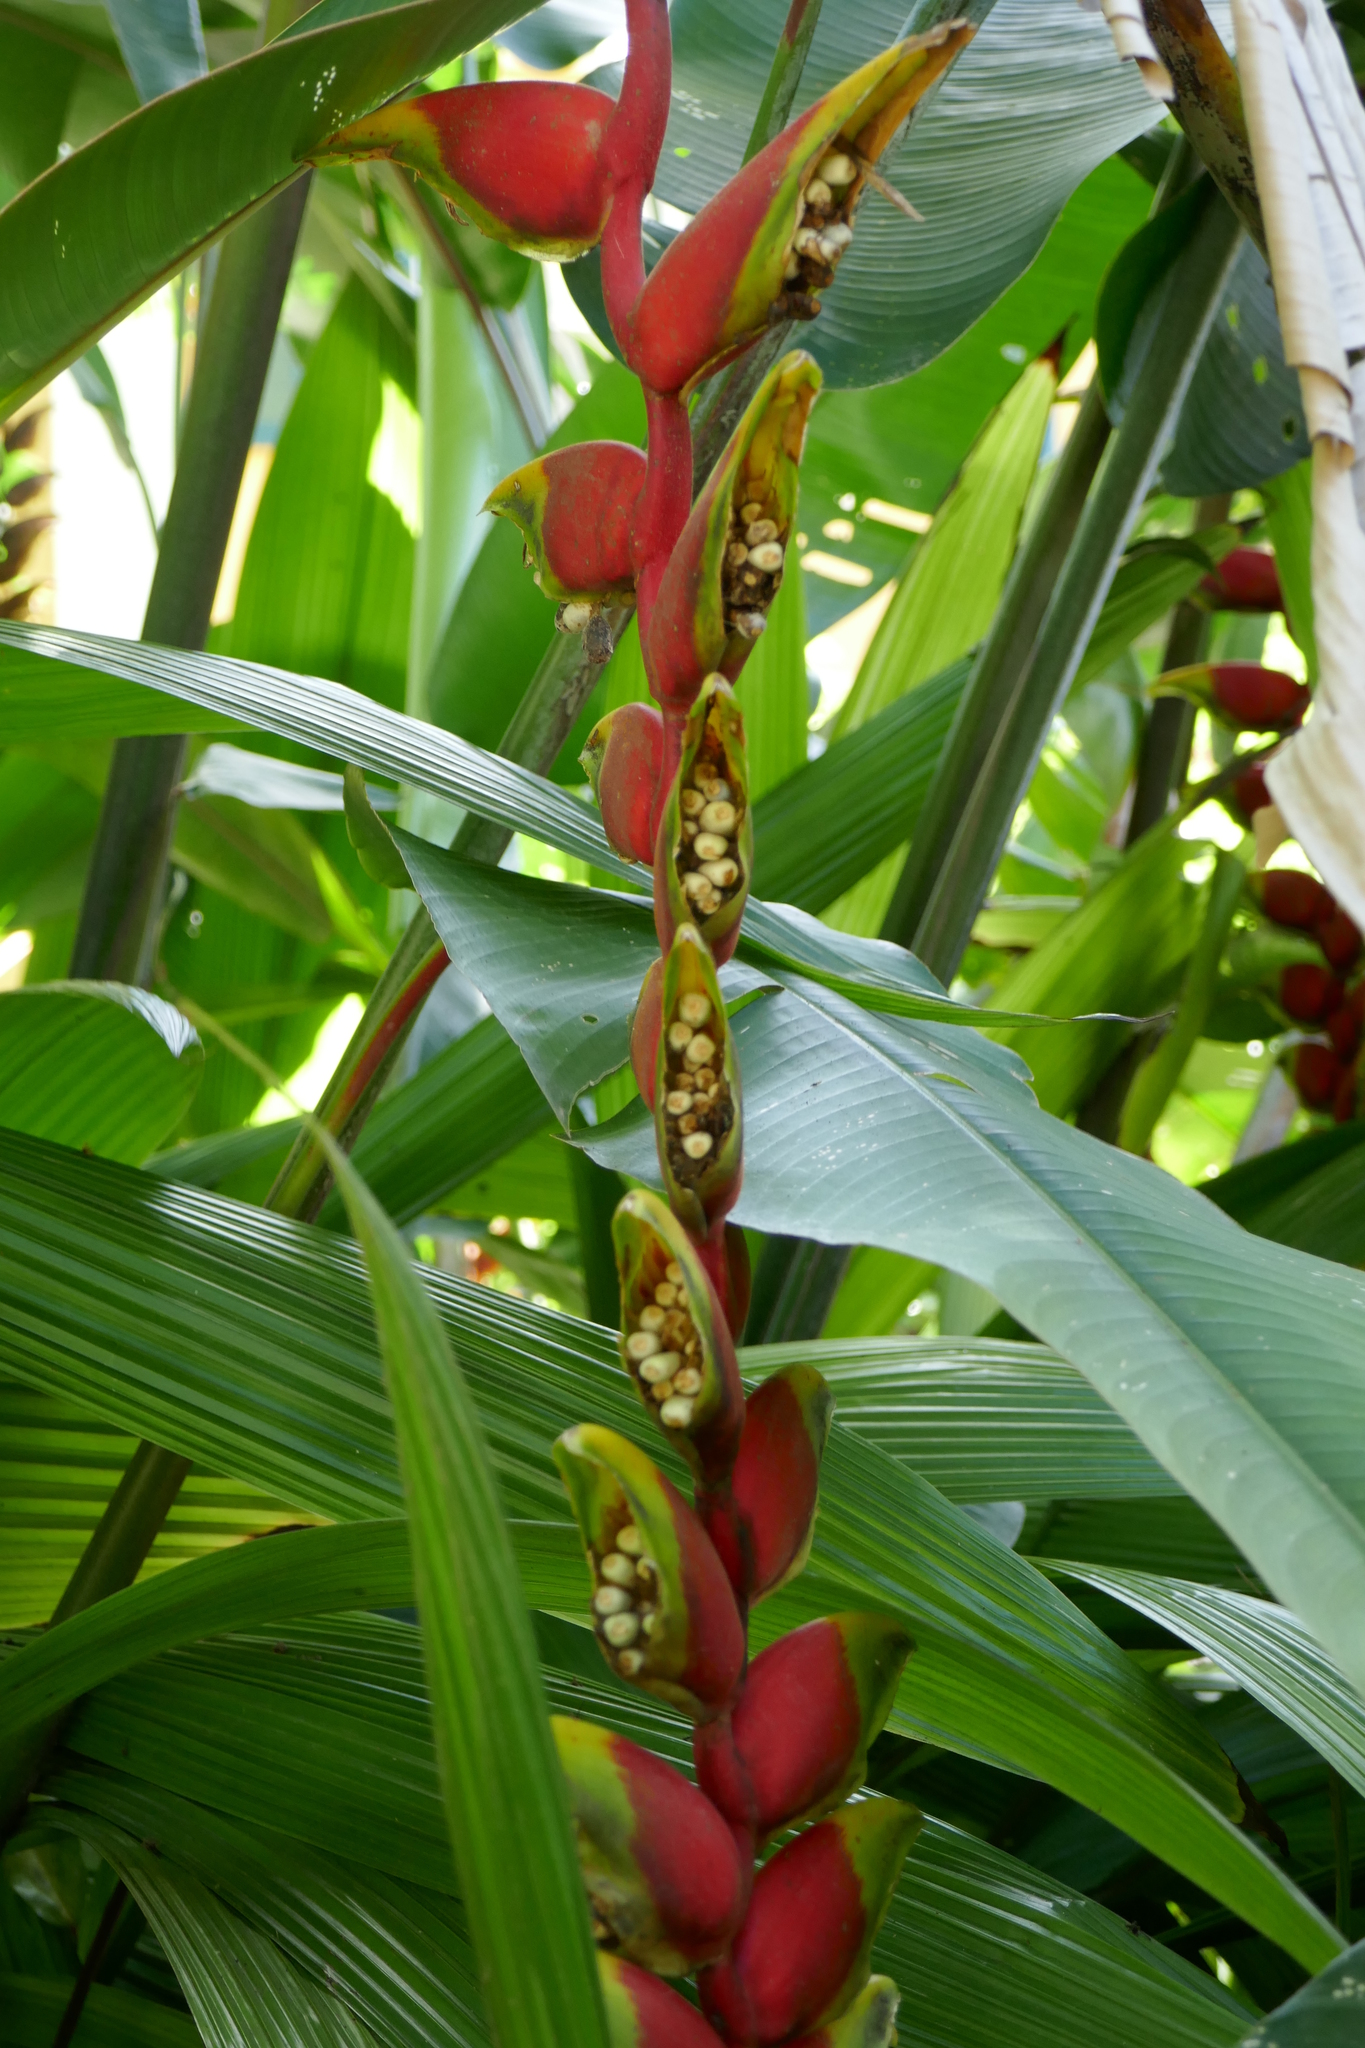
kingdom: Plantae
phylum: Tracheophyta
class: Liliopsida
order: Zingiberales
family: Heliconiaceae
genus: Heliconia
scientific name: Heliconia rostrata
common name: False bird of paradise
